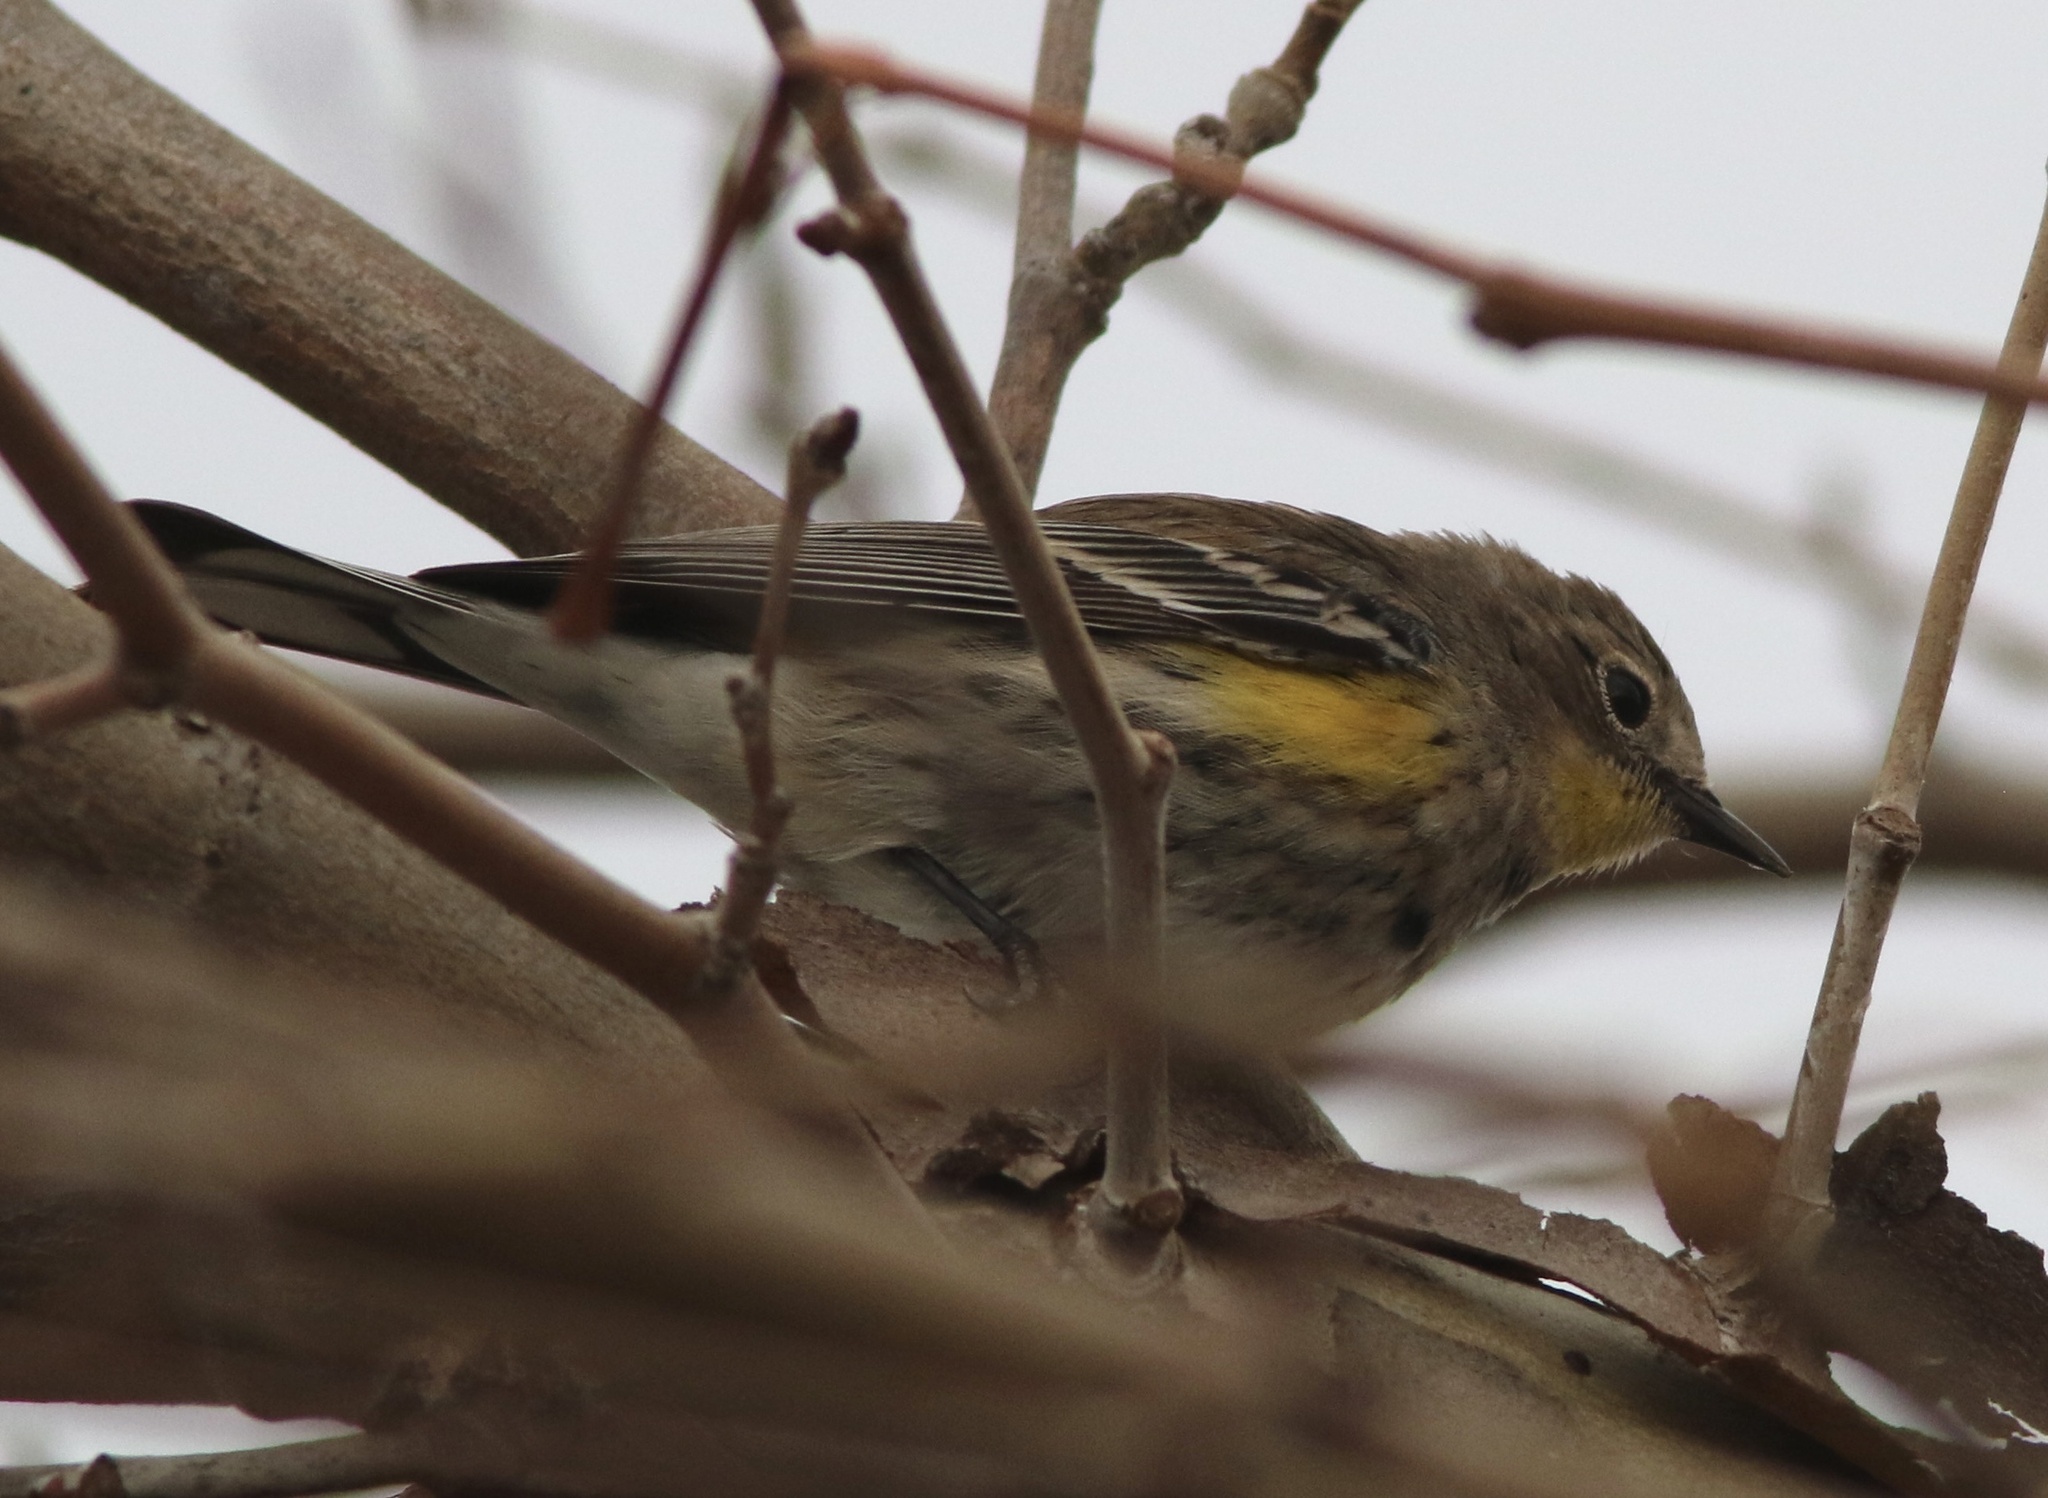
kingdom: Animalia
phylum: Chordata
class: Aves
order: Passeriformes
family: Parulidae
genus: Setophaga
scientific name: Setophaga coronata
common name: Myrtle warbler
